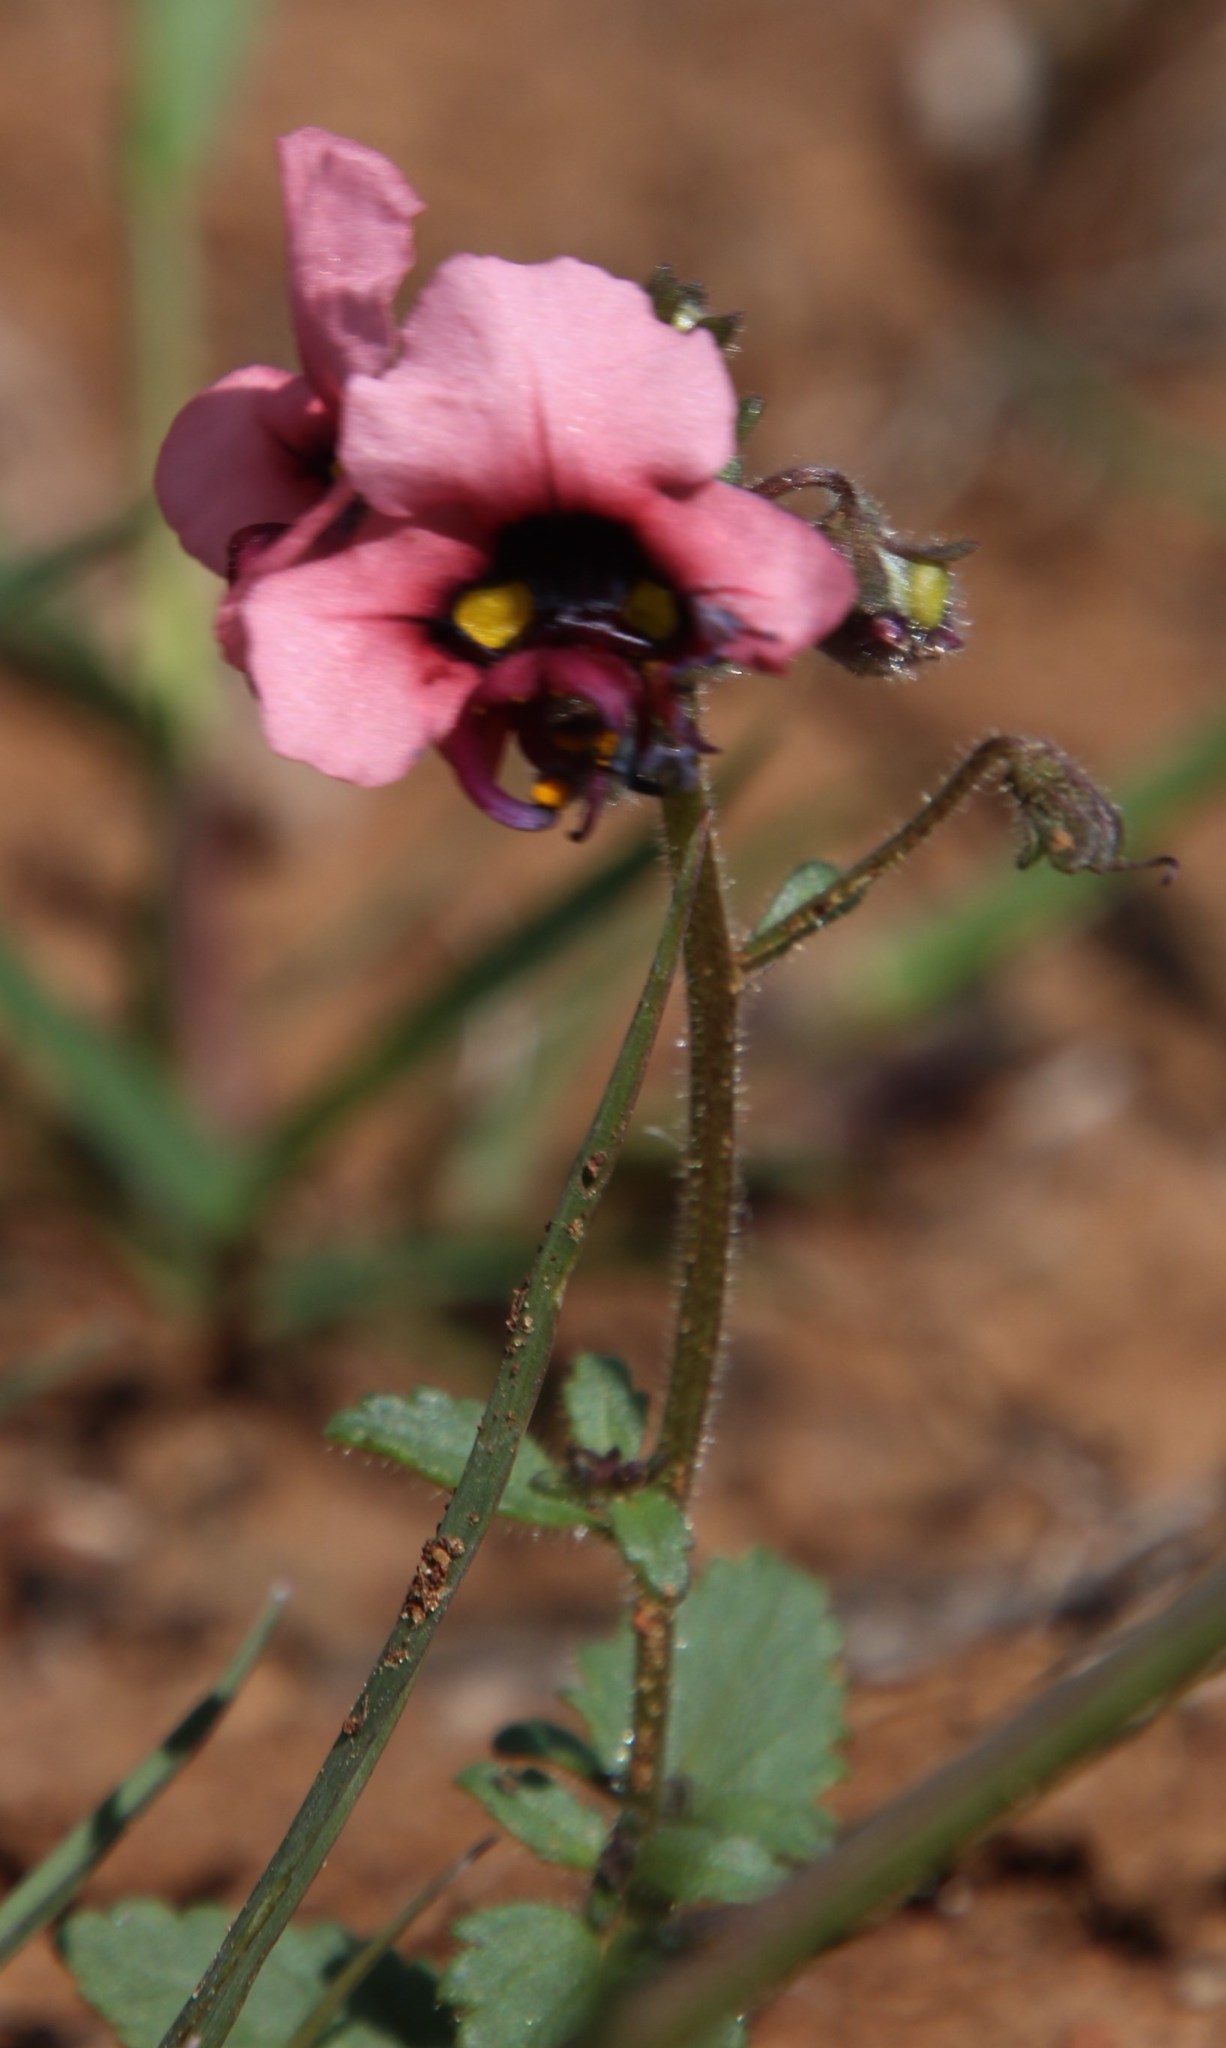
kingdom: Plantae
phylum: Tracheophyta
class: Magnoliopsida
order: Lamiales
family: Scrophulariaceae
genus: Alonsoa
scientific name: Alonsoa unilabiata
